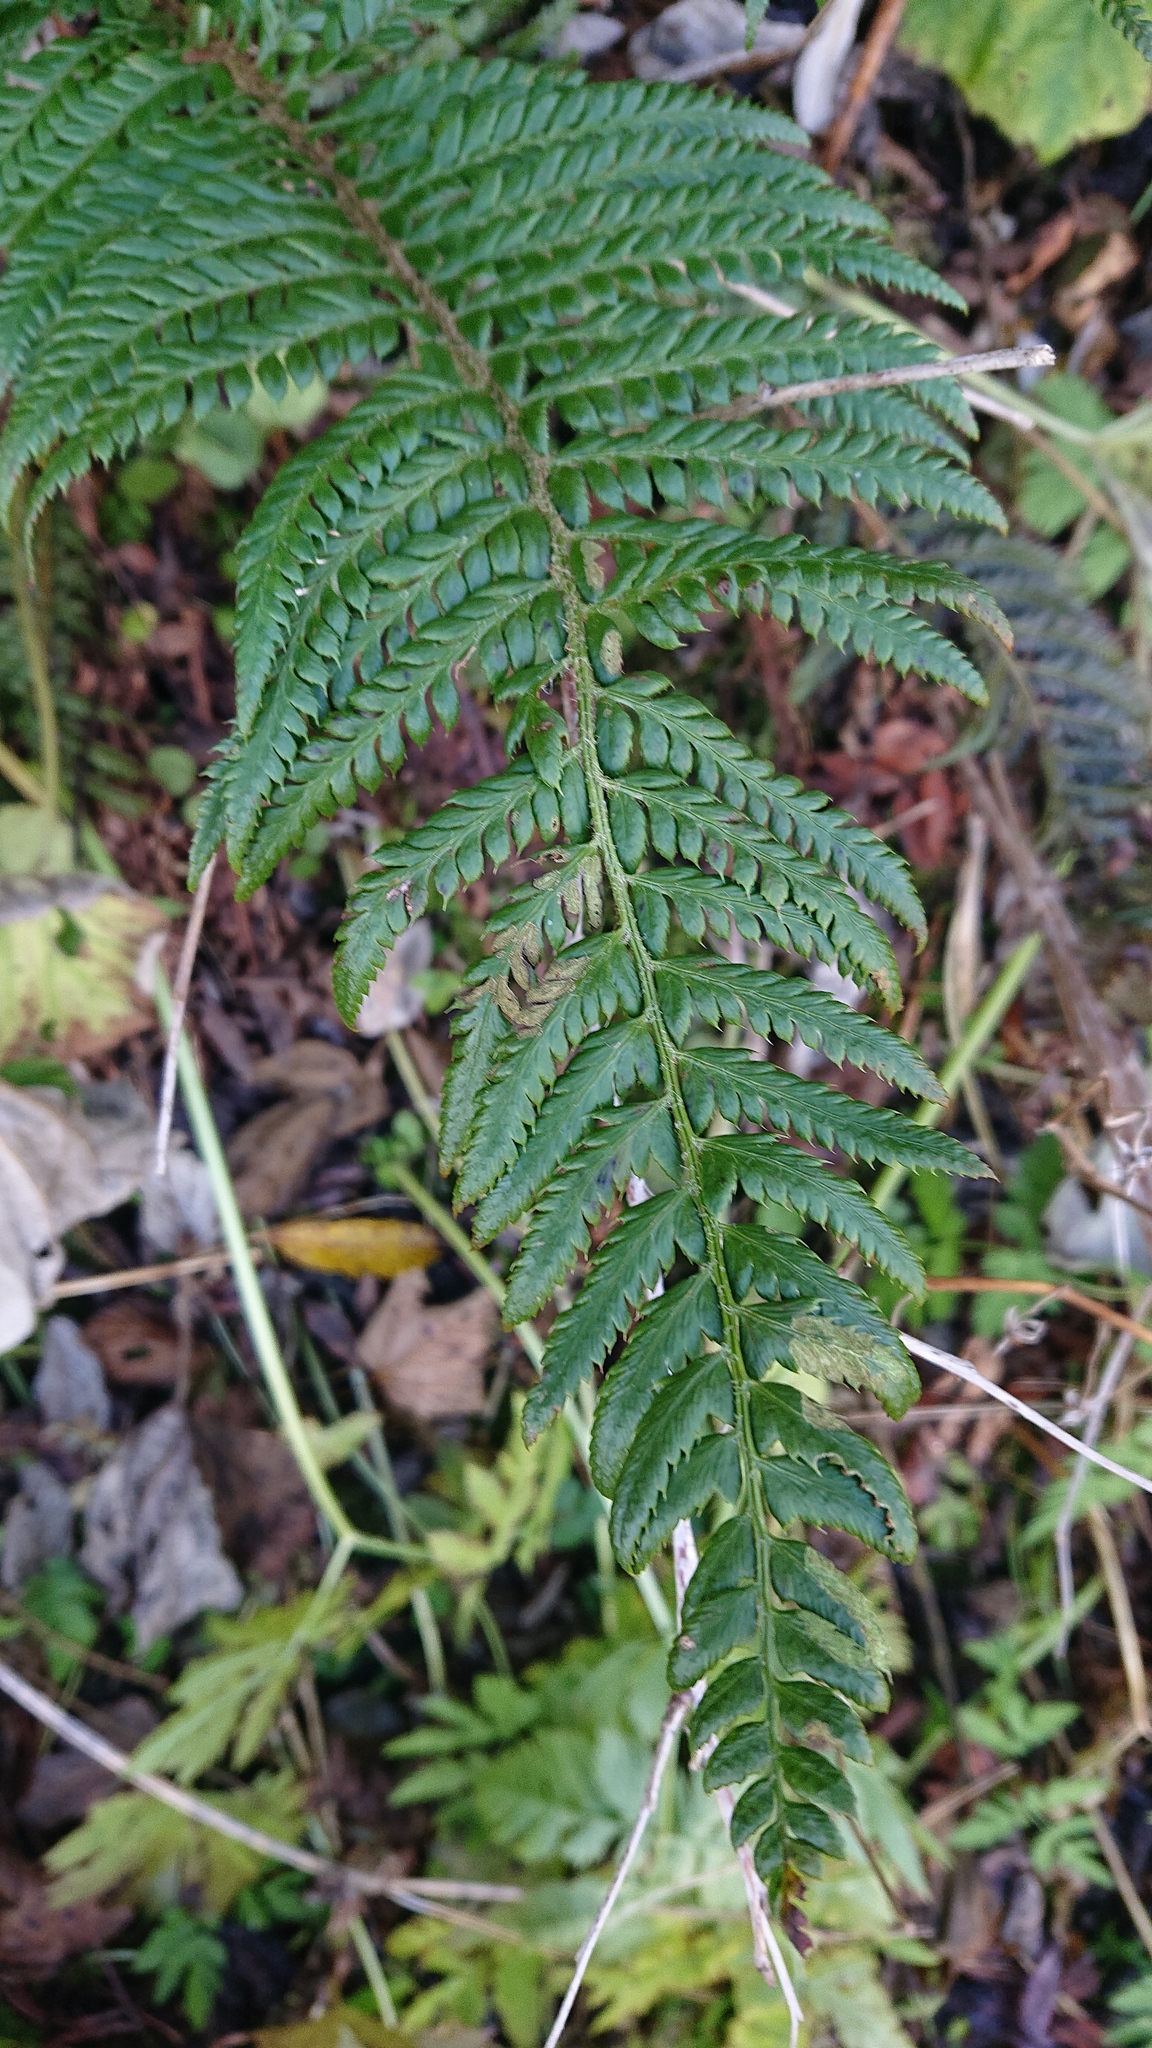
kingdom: Plantae
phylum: Tracheophyta
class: Polypodiopsida
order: Polypodiales
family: Dryopteridaceae
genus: Polystichum
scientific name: Polystichum aculeatum
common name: Hard shield-fern
